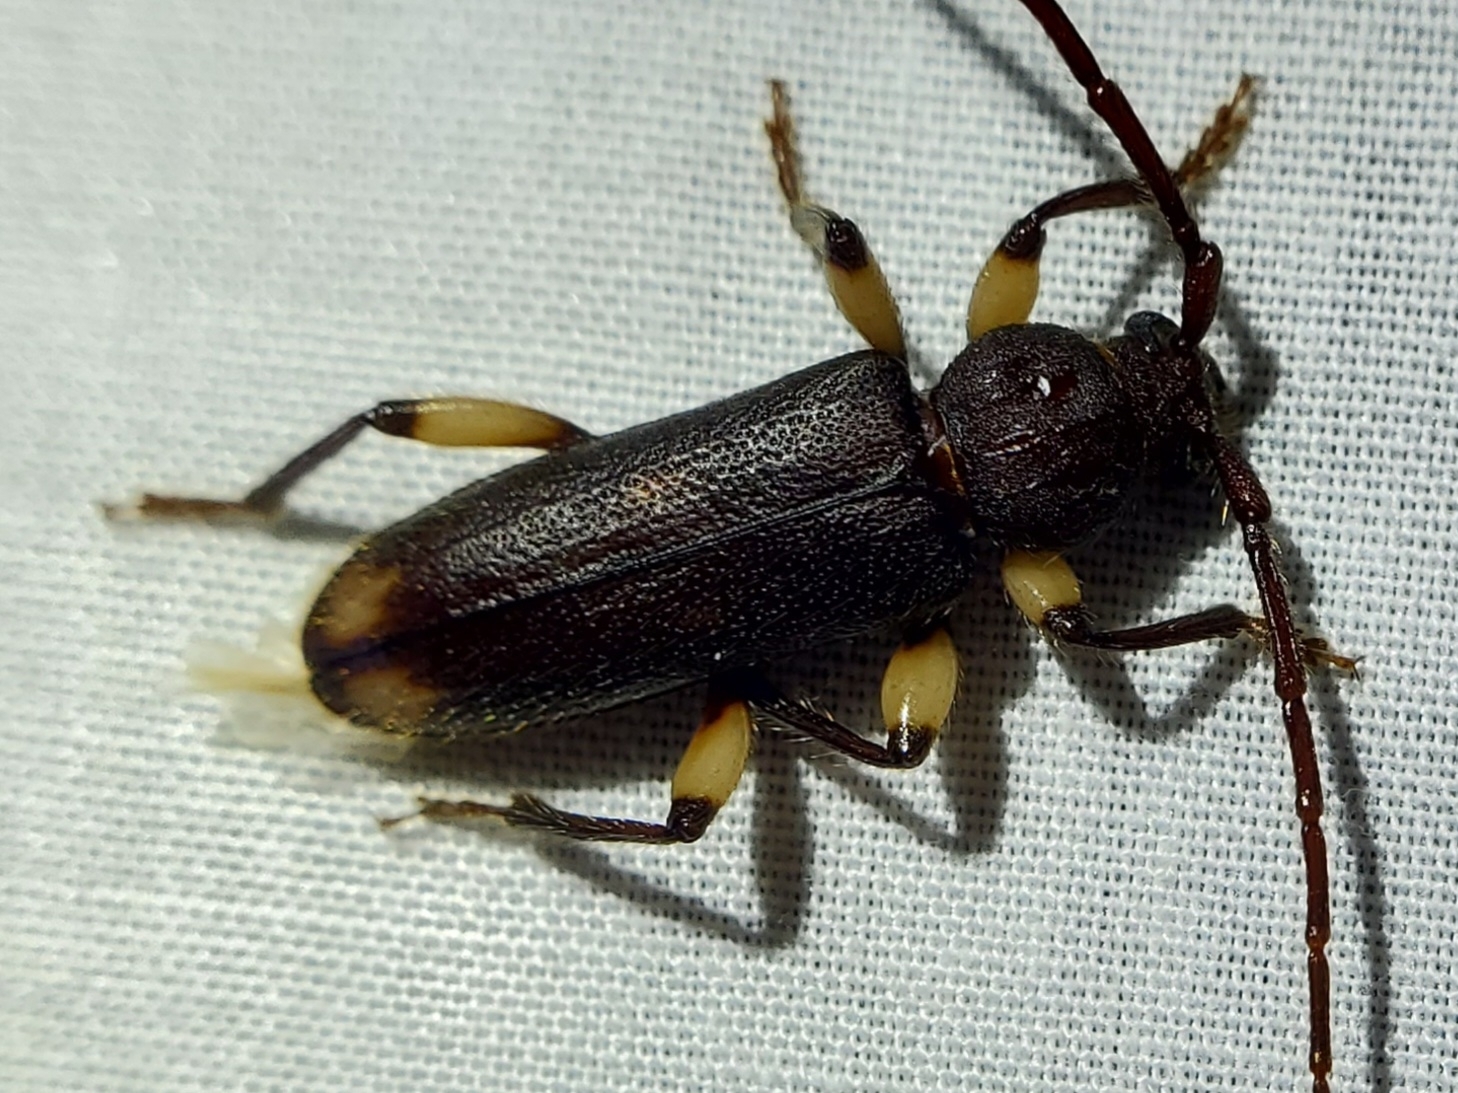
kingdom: Animalia
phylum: Arthropoda
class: Insecta
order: Coleoptera
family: Cerambycidae
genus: Tylonotus
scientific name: Tylonotus bimaculatus
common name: Ash and privet borer
